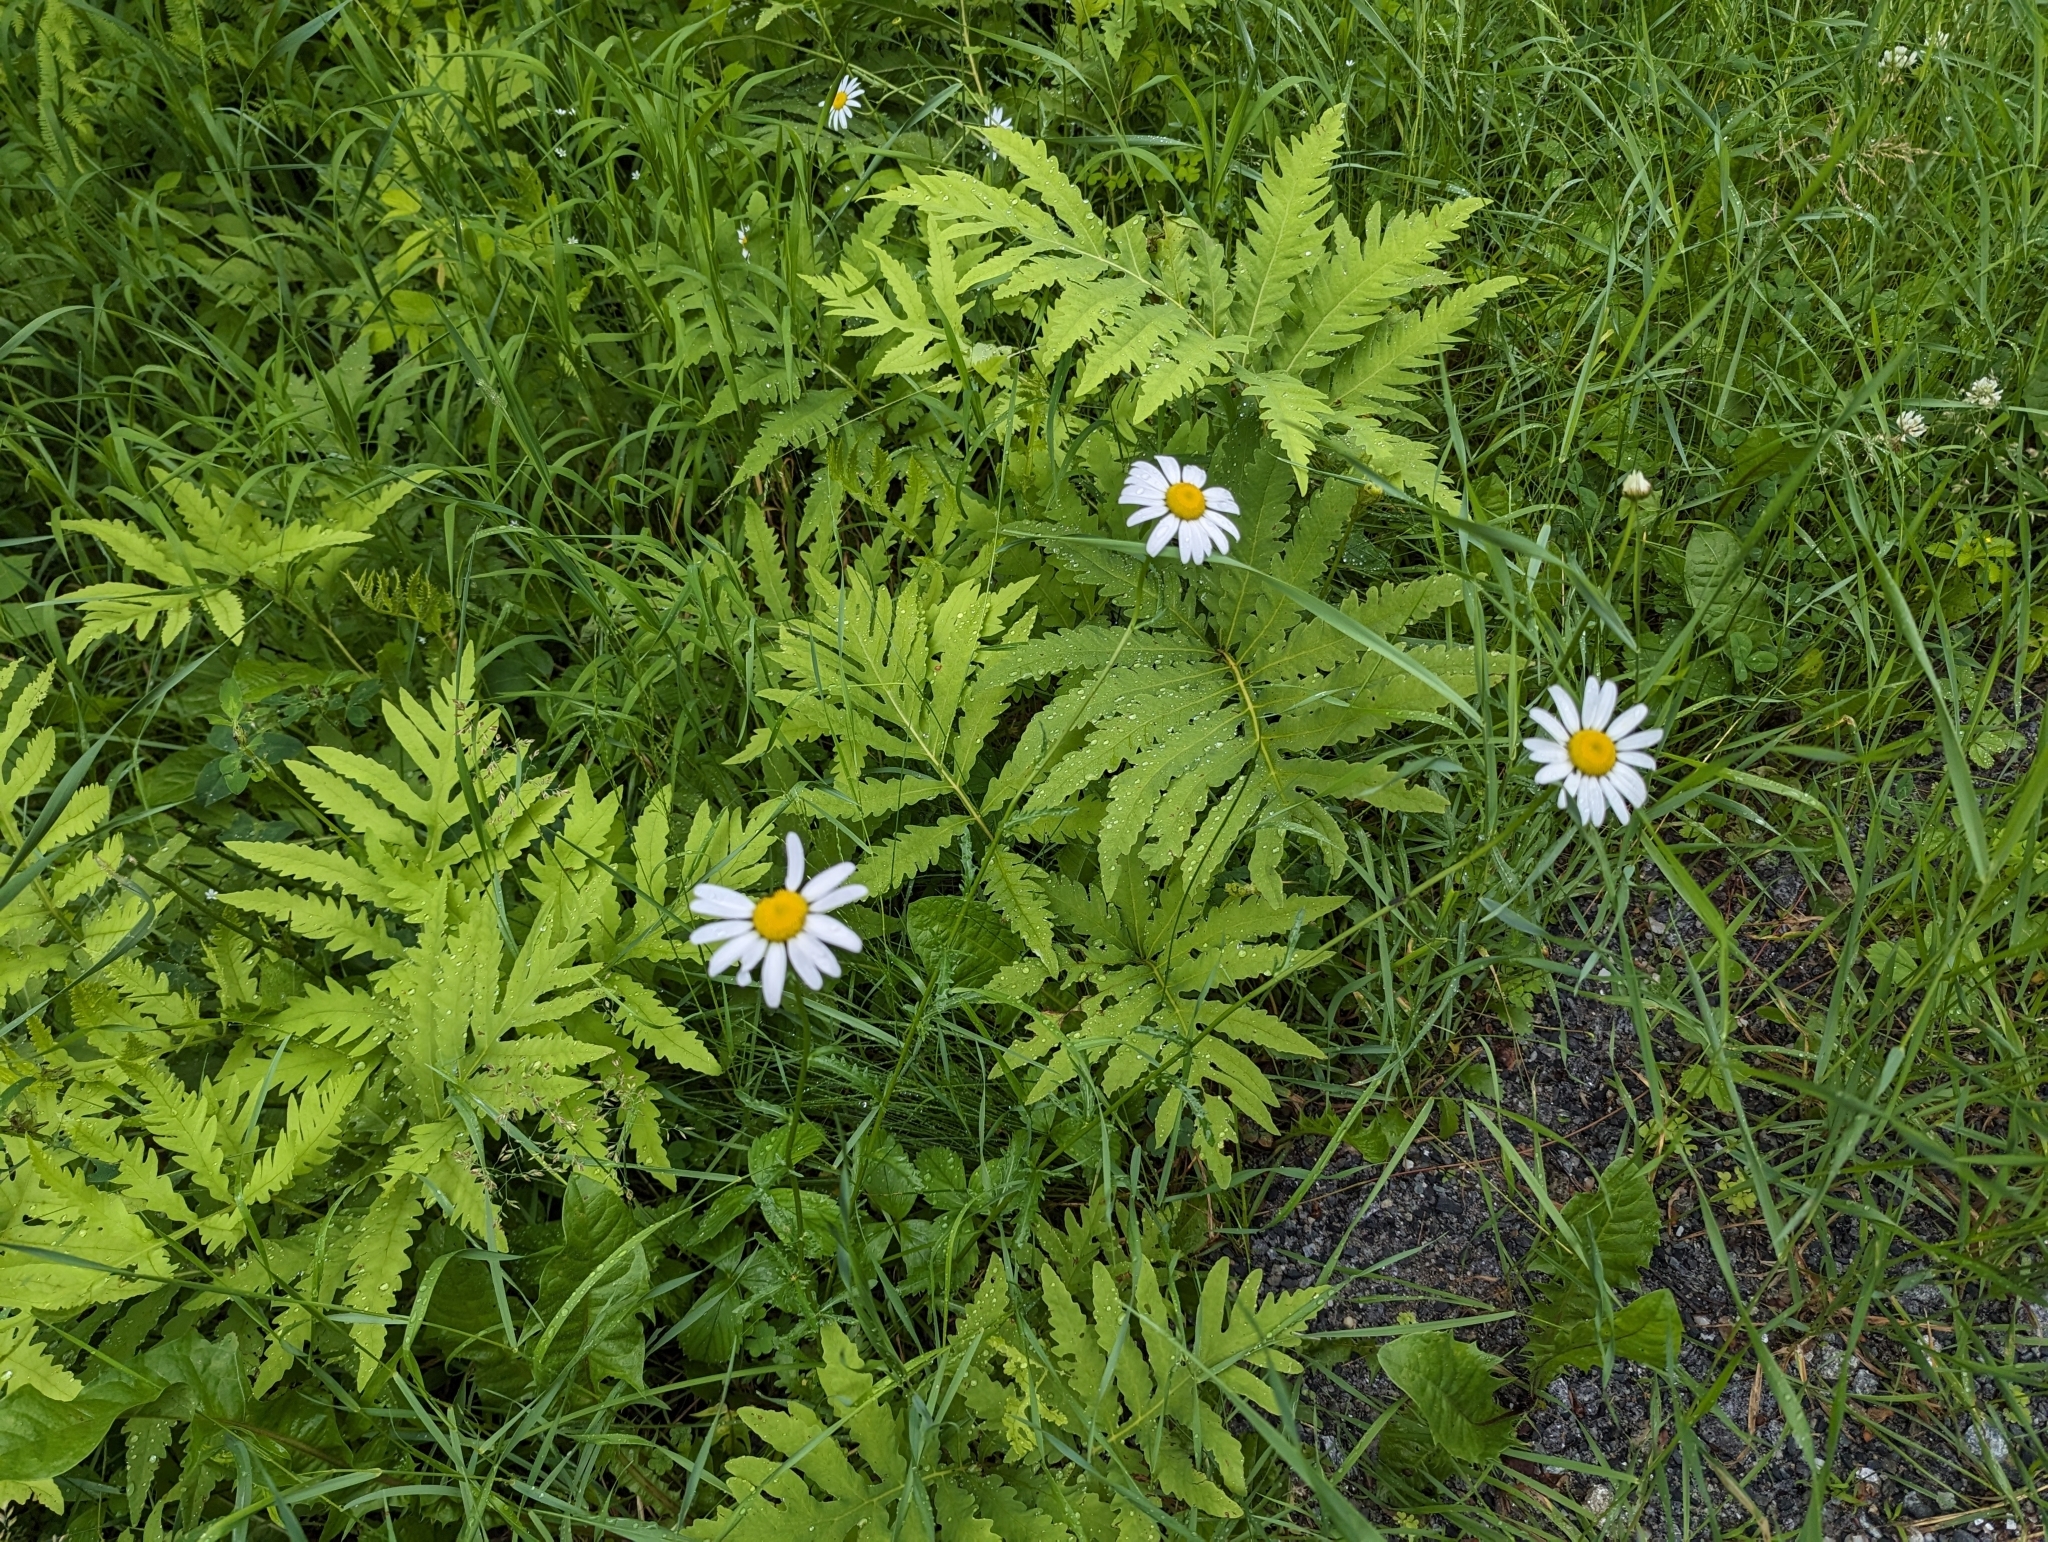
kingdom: Plantae
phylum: Tracheophyta
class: Polypodiopsida
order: Polypodiales
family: Onocleaceae
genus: Onoclea
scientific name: Onoclea sensibilis
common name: Sensitive fern
